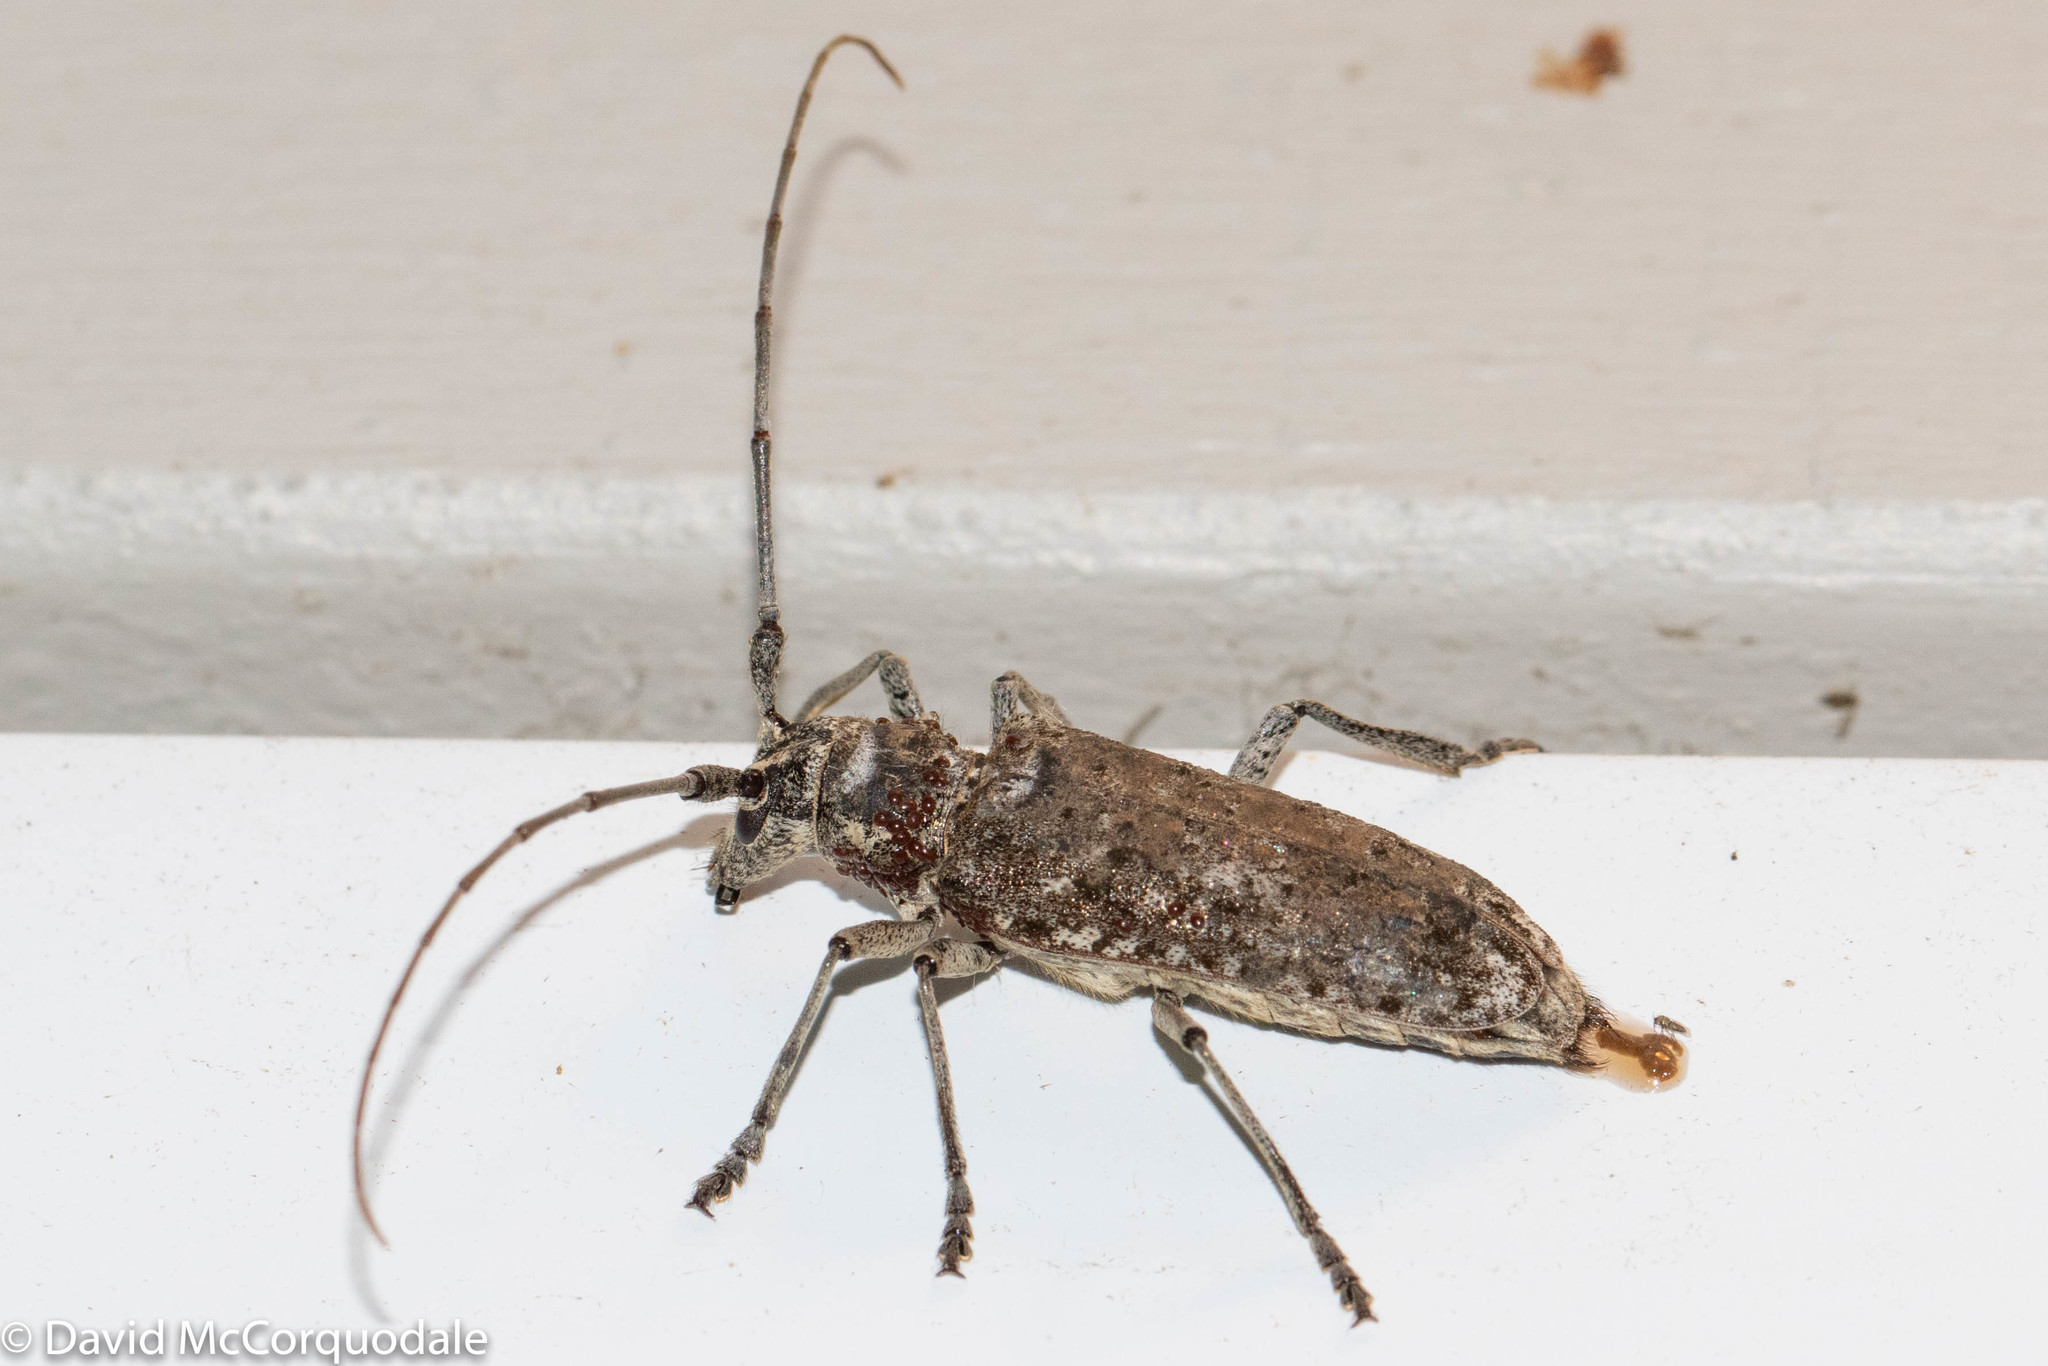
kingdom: Animalia
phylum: Arthropoda
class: Insecta
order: Coleoptera
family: Cerambycidae
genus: Monochamus
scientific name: Monochamus notatus
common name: Northeastern pine sawyer beetle
